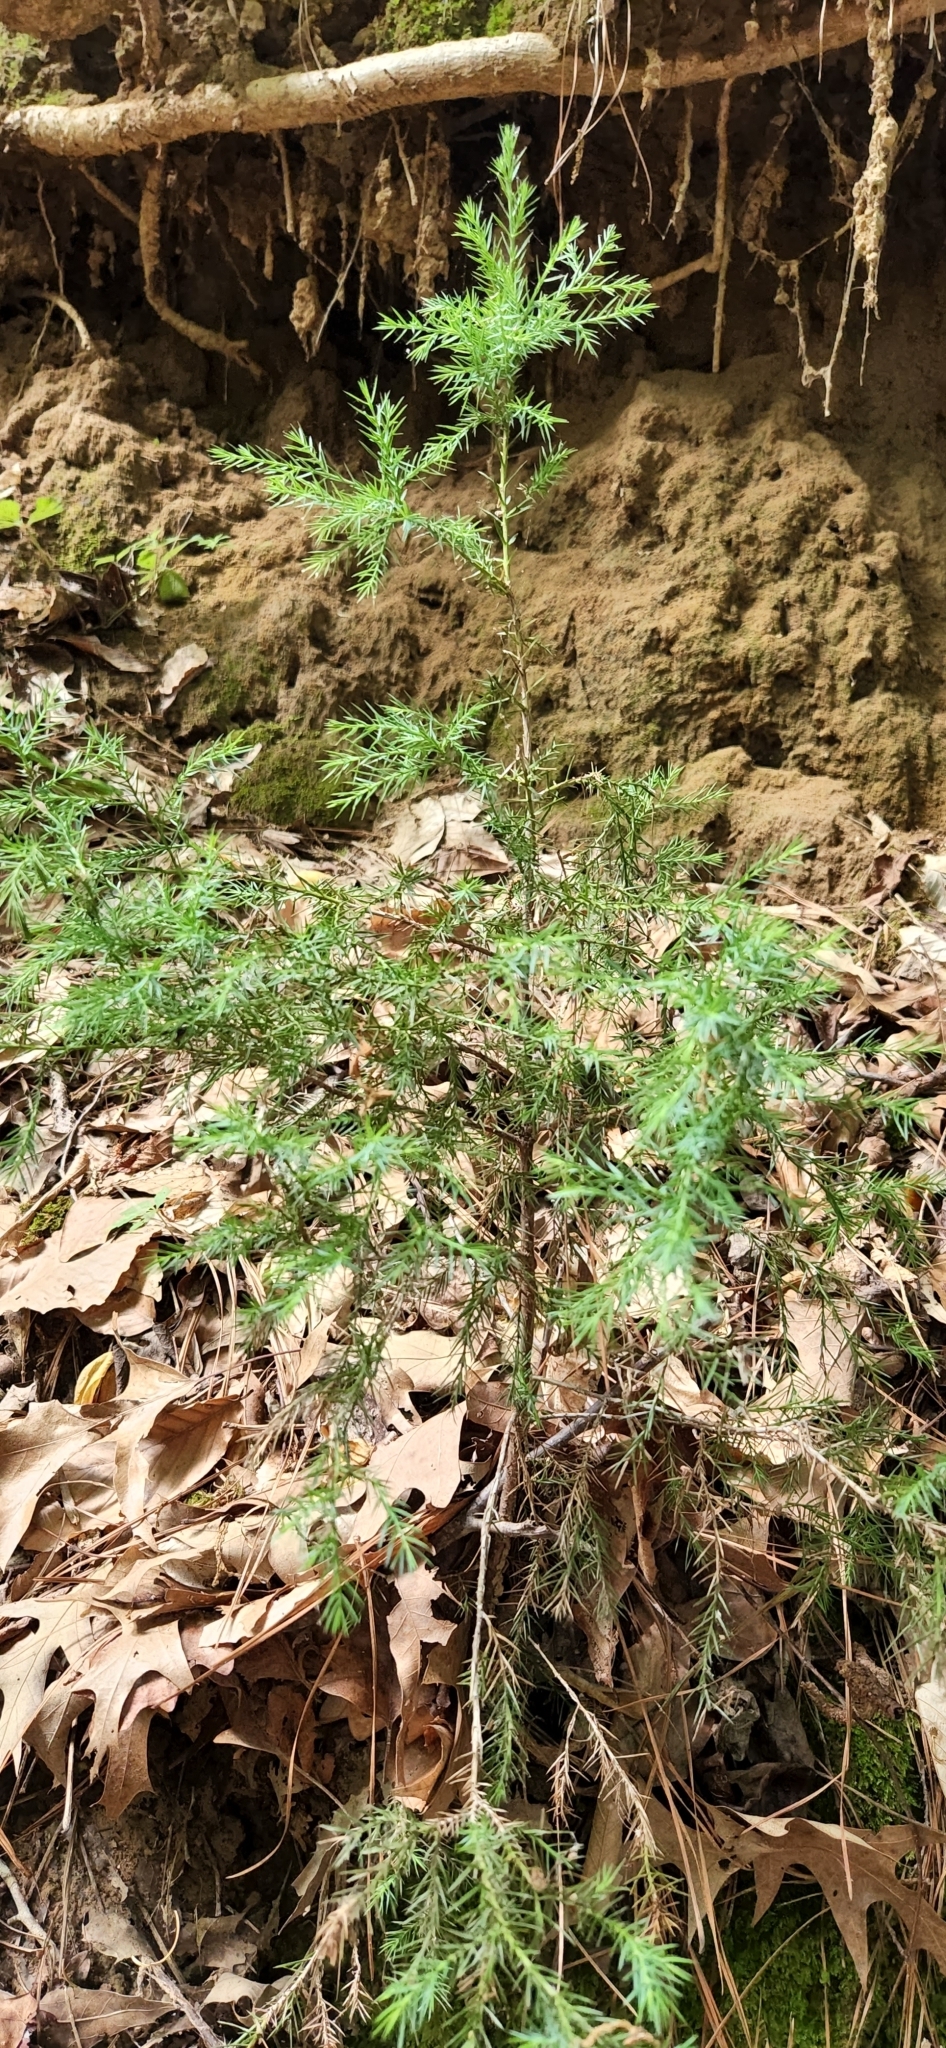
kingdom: Plantae
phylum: Tracheophyta
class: Pinopsida
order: Pinales
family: Cupressaceae
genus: Juniperus
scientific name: Juniperus virginiana
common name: Red juniper
